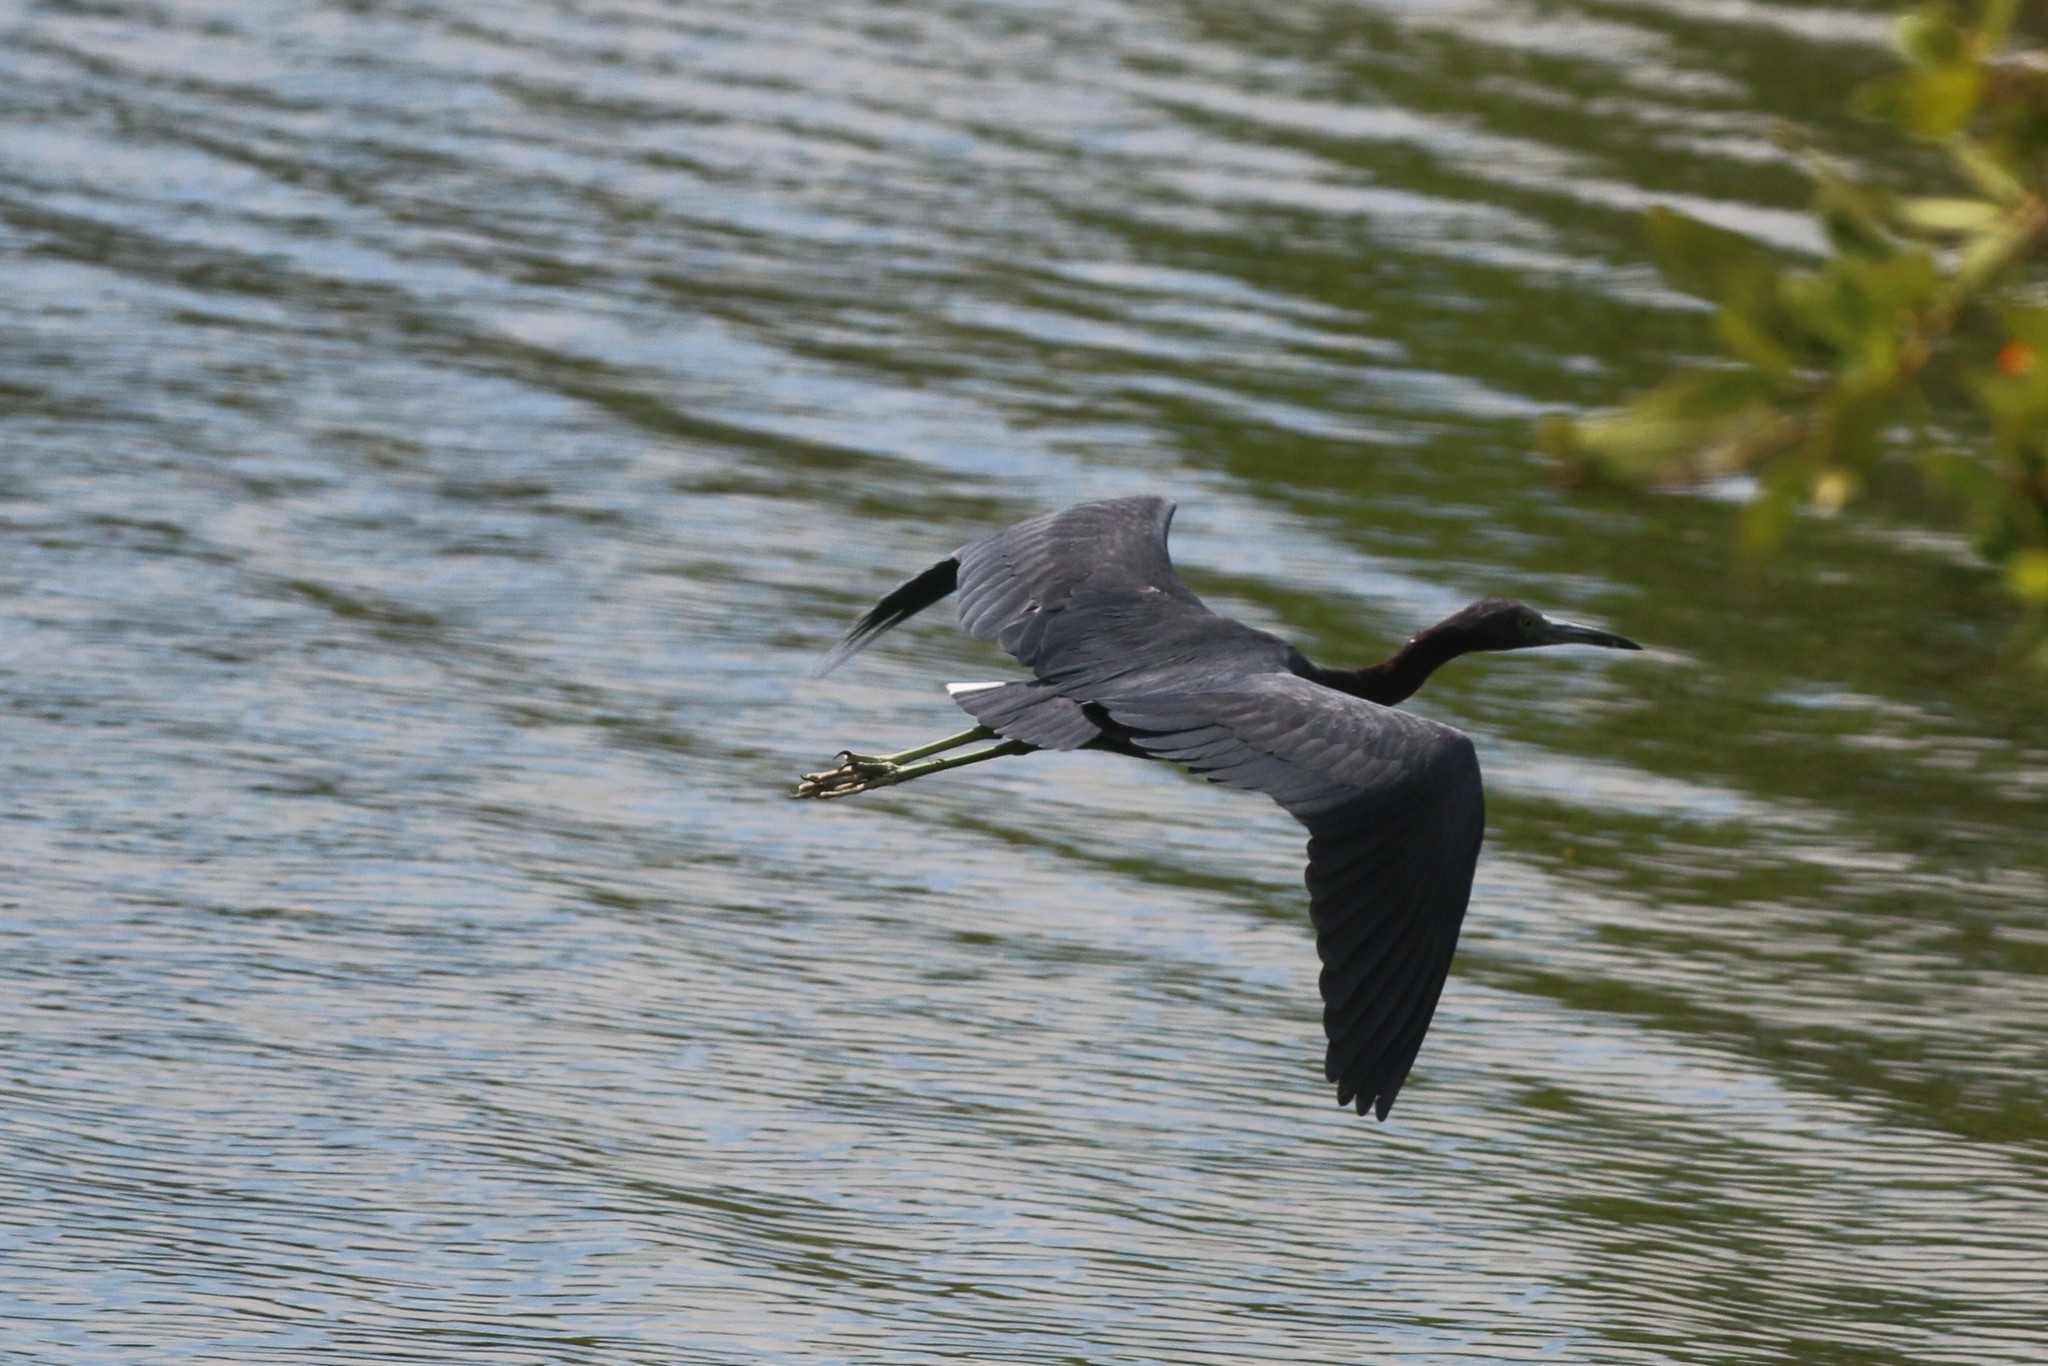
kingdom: Animalia
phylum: Chordata
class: Aves
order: Pelecaniformes
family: Ardeidae
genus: Egretta
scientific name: Egretta caerulea
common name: Little blue heron
